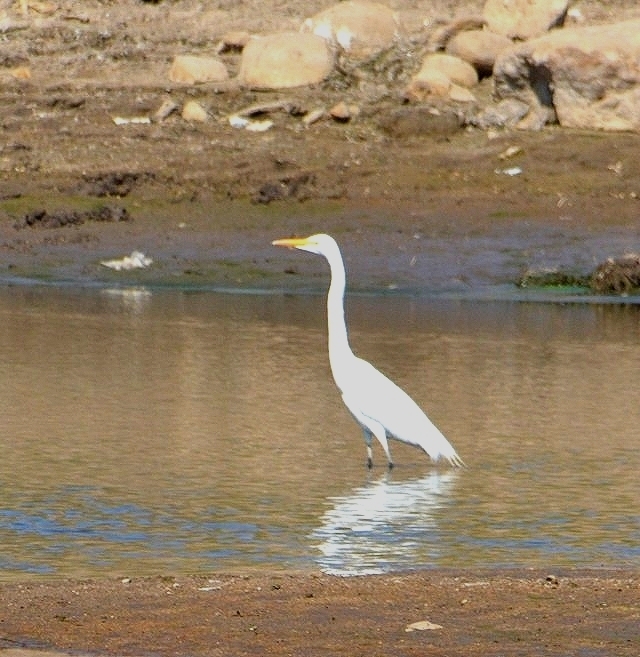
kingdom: Animalia
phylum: Chordata
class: Aves
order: Pelecaniformes
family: Ardeidae
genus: Ardea
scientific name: Ardea alba
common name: Great egret
